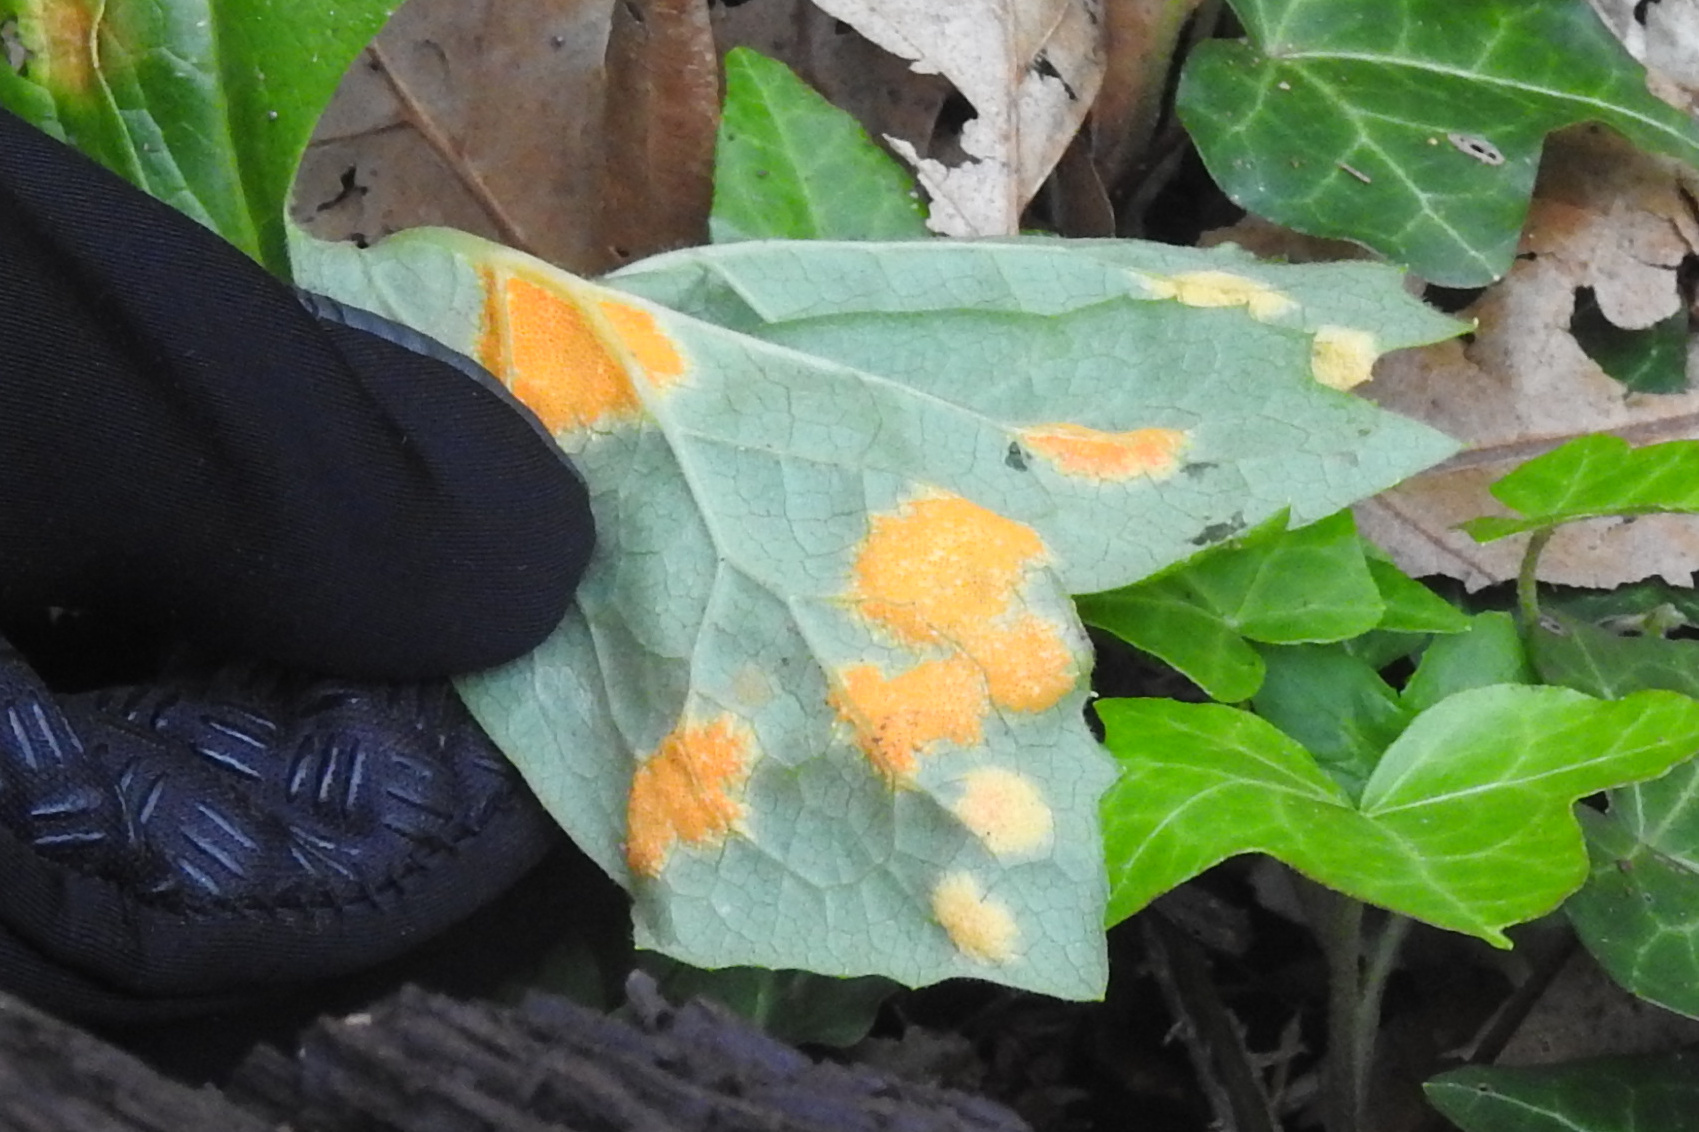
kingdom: Fungi
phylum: Basidiomycota
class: Pucciniomycetes
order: Pucciniales
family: Pucciniaceae
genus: Puccinia
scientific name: Puccinia podophylli
